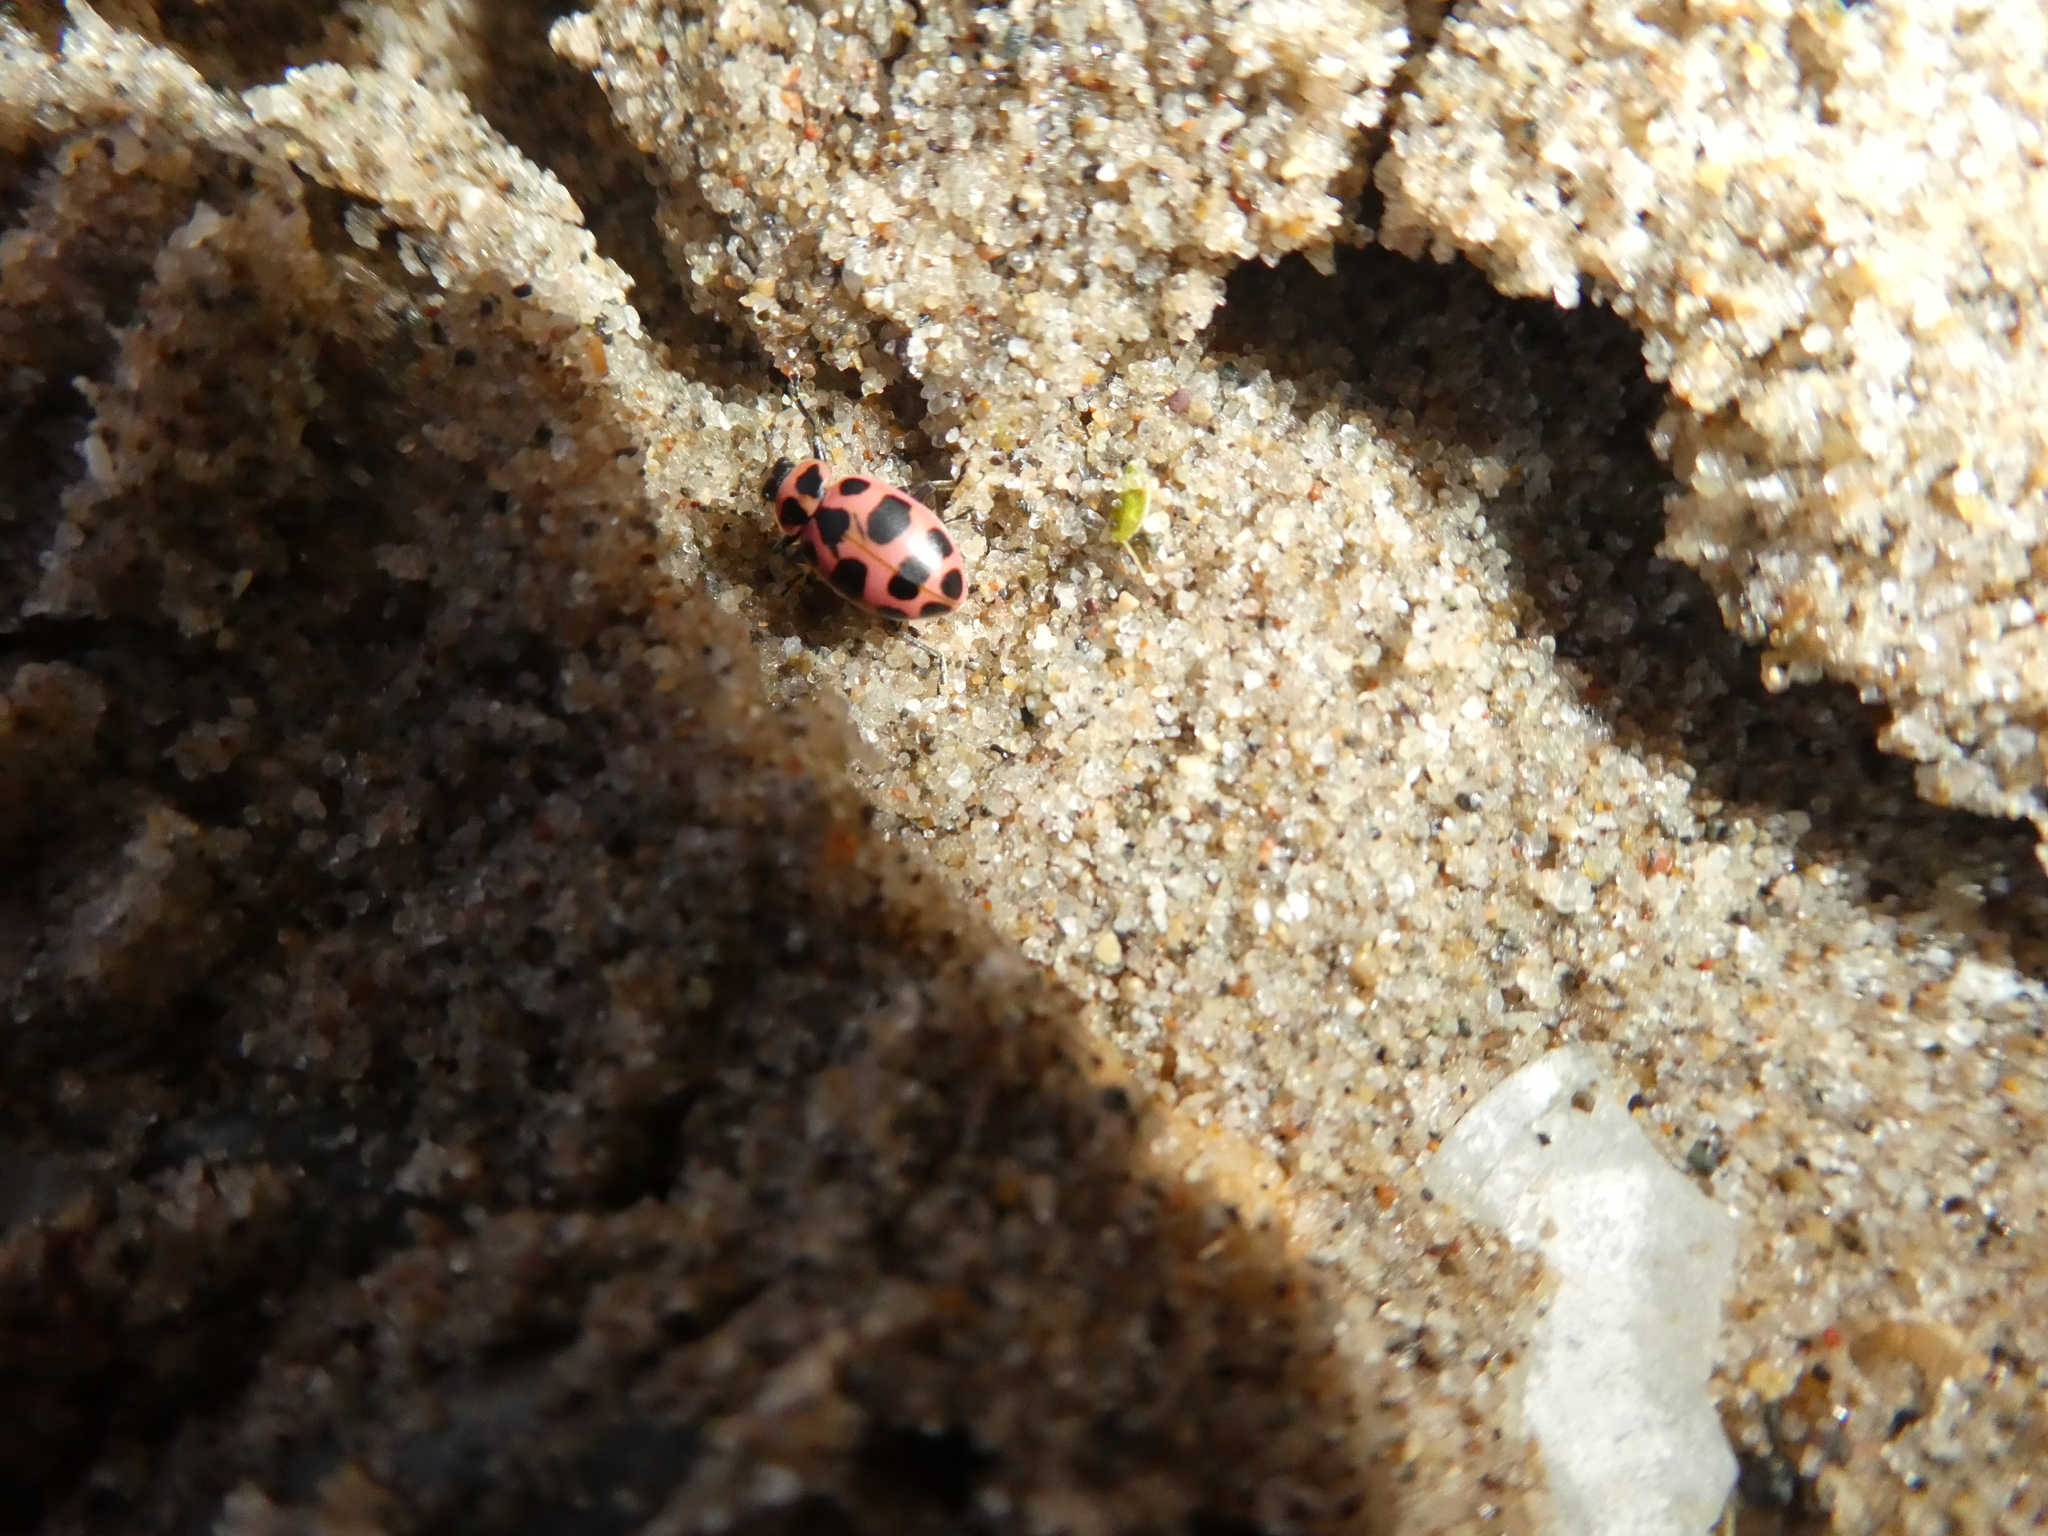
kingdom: Animalia
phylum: Arthropoda
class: Insecta
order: Coleoptera
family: Coccinellidae
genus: Coleomegilla
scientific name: Coleomegilla maculata
